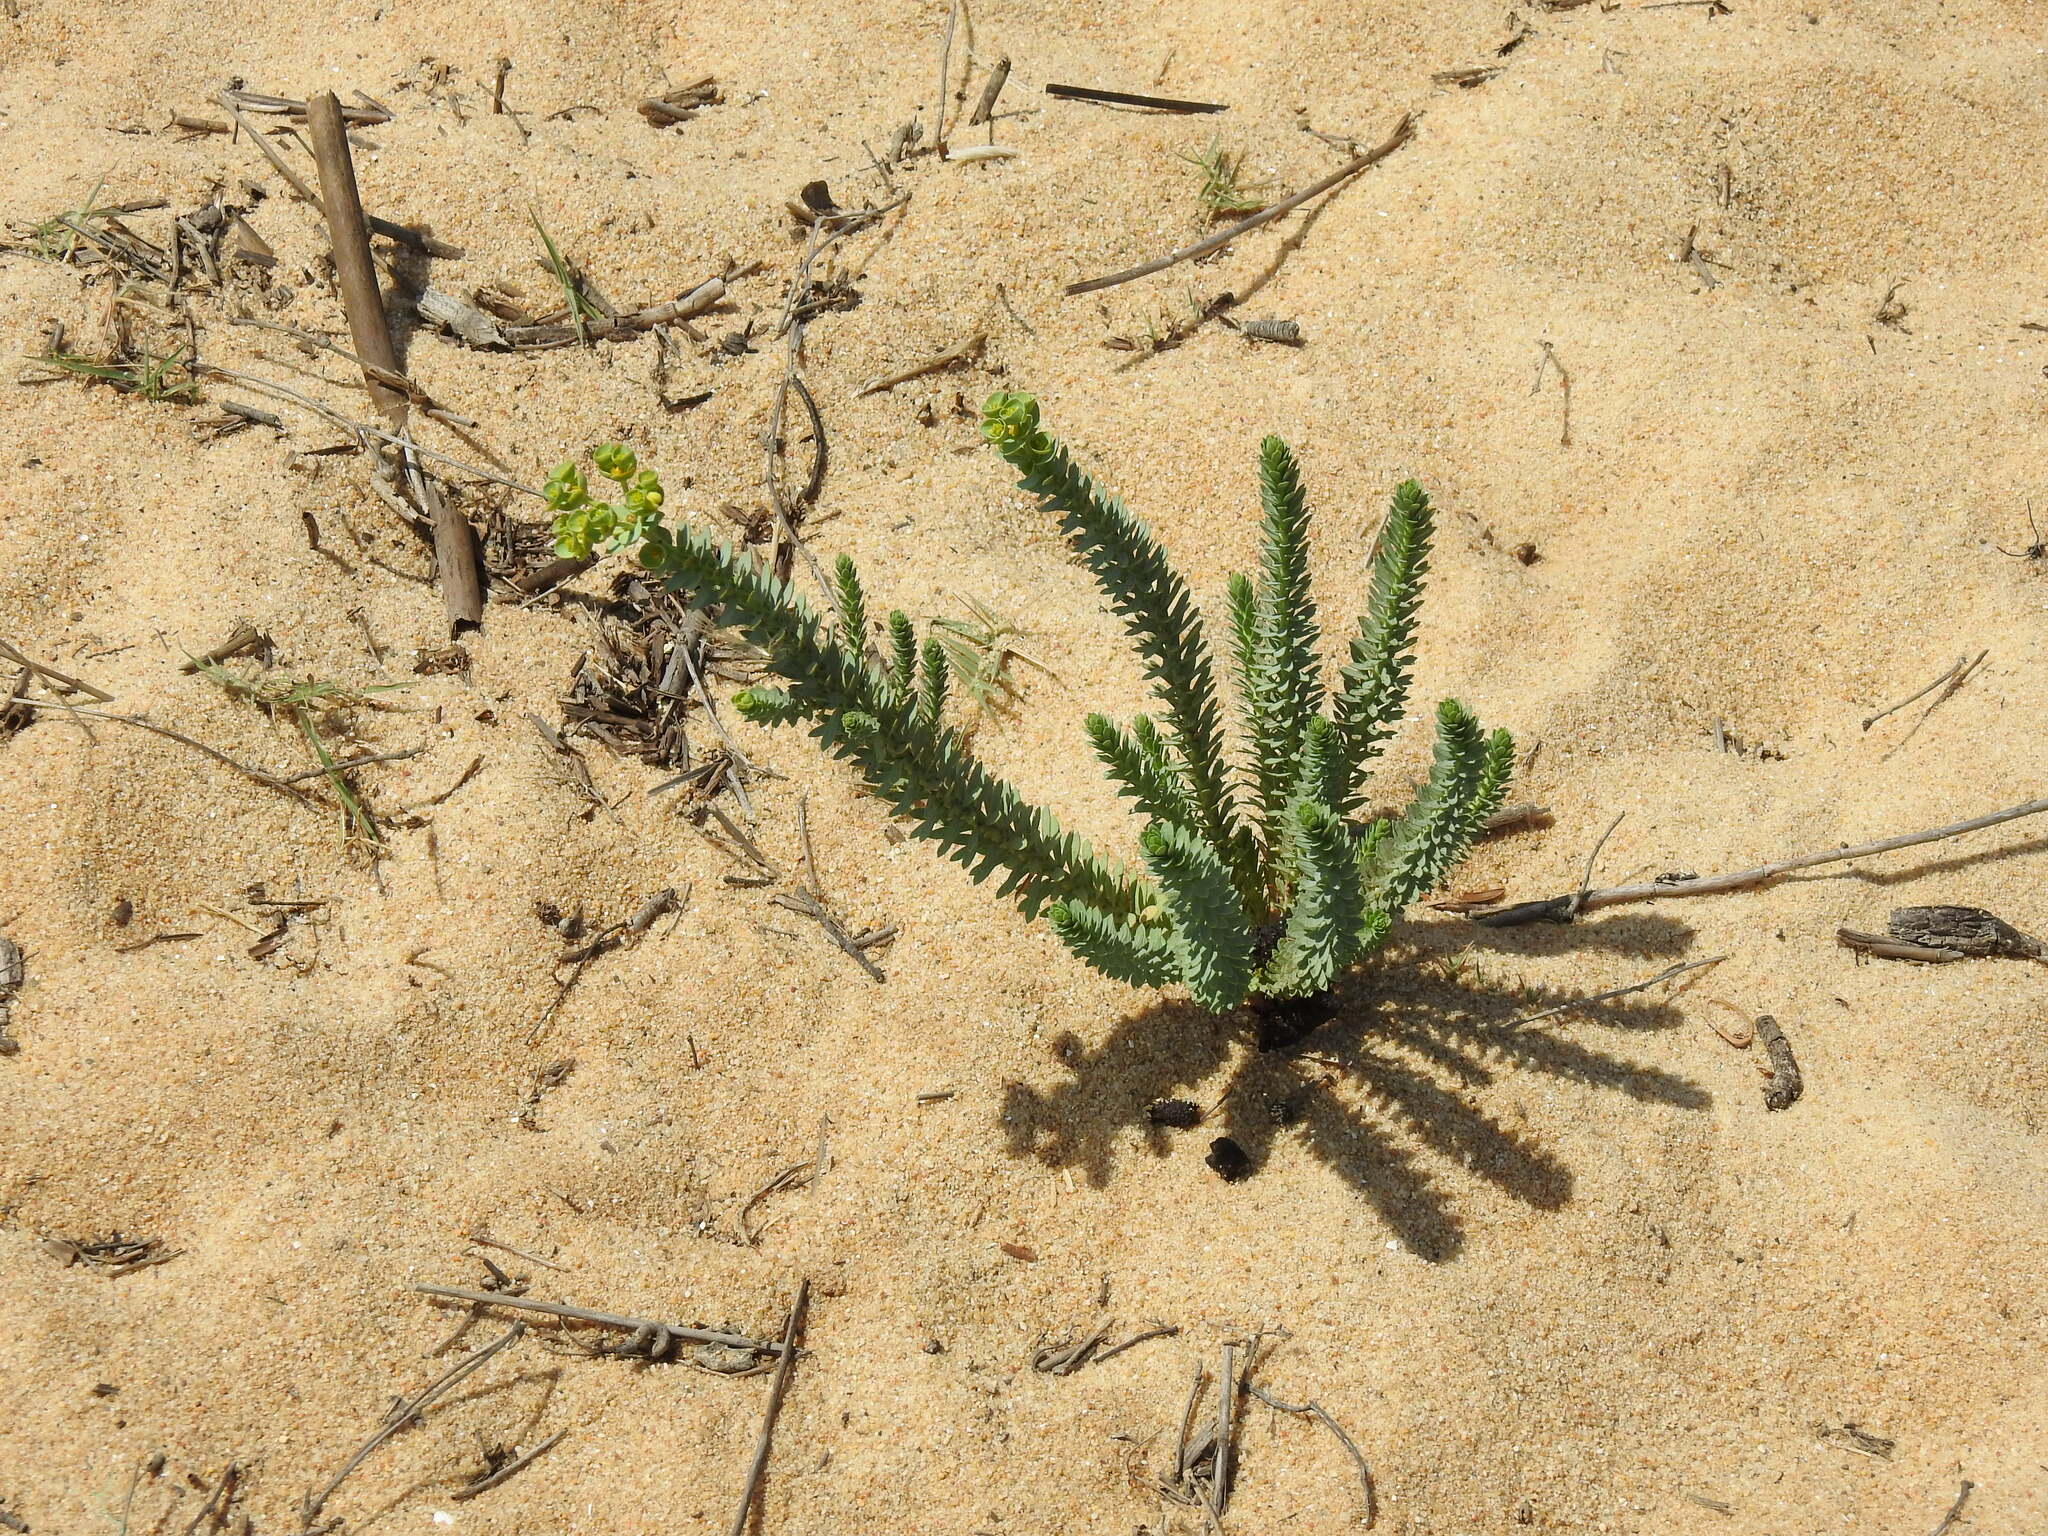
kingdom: Plantae
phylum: Tracheophyta
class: Magnoliopsida
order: Malpighiales
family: Euphorbiaceae
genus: Euphorbia
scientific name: Euphorbia paralias
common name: Sea spurge
